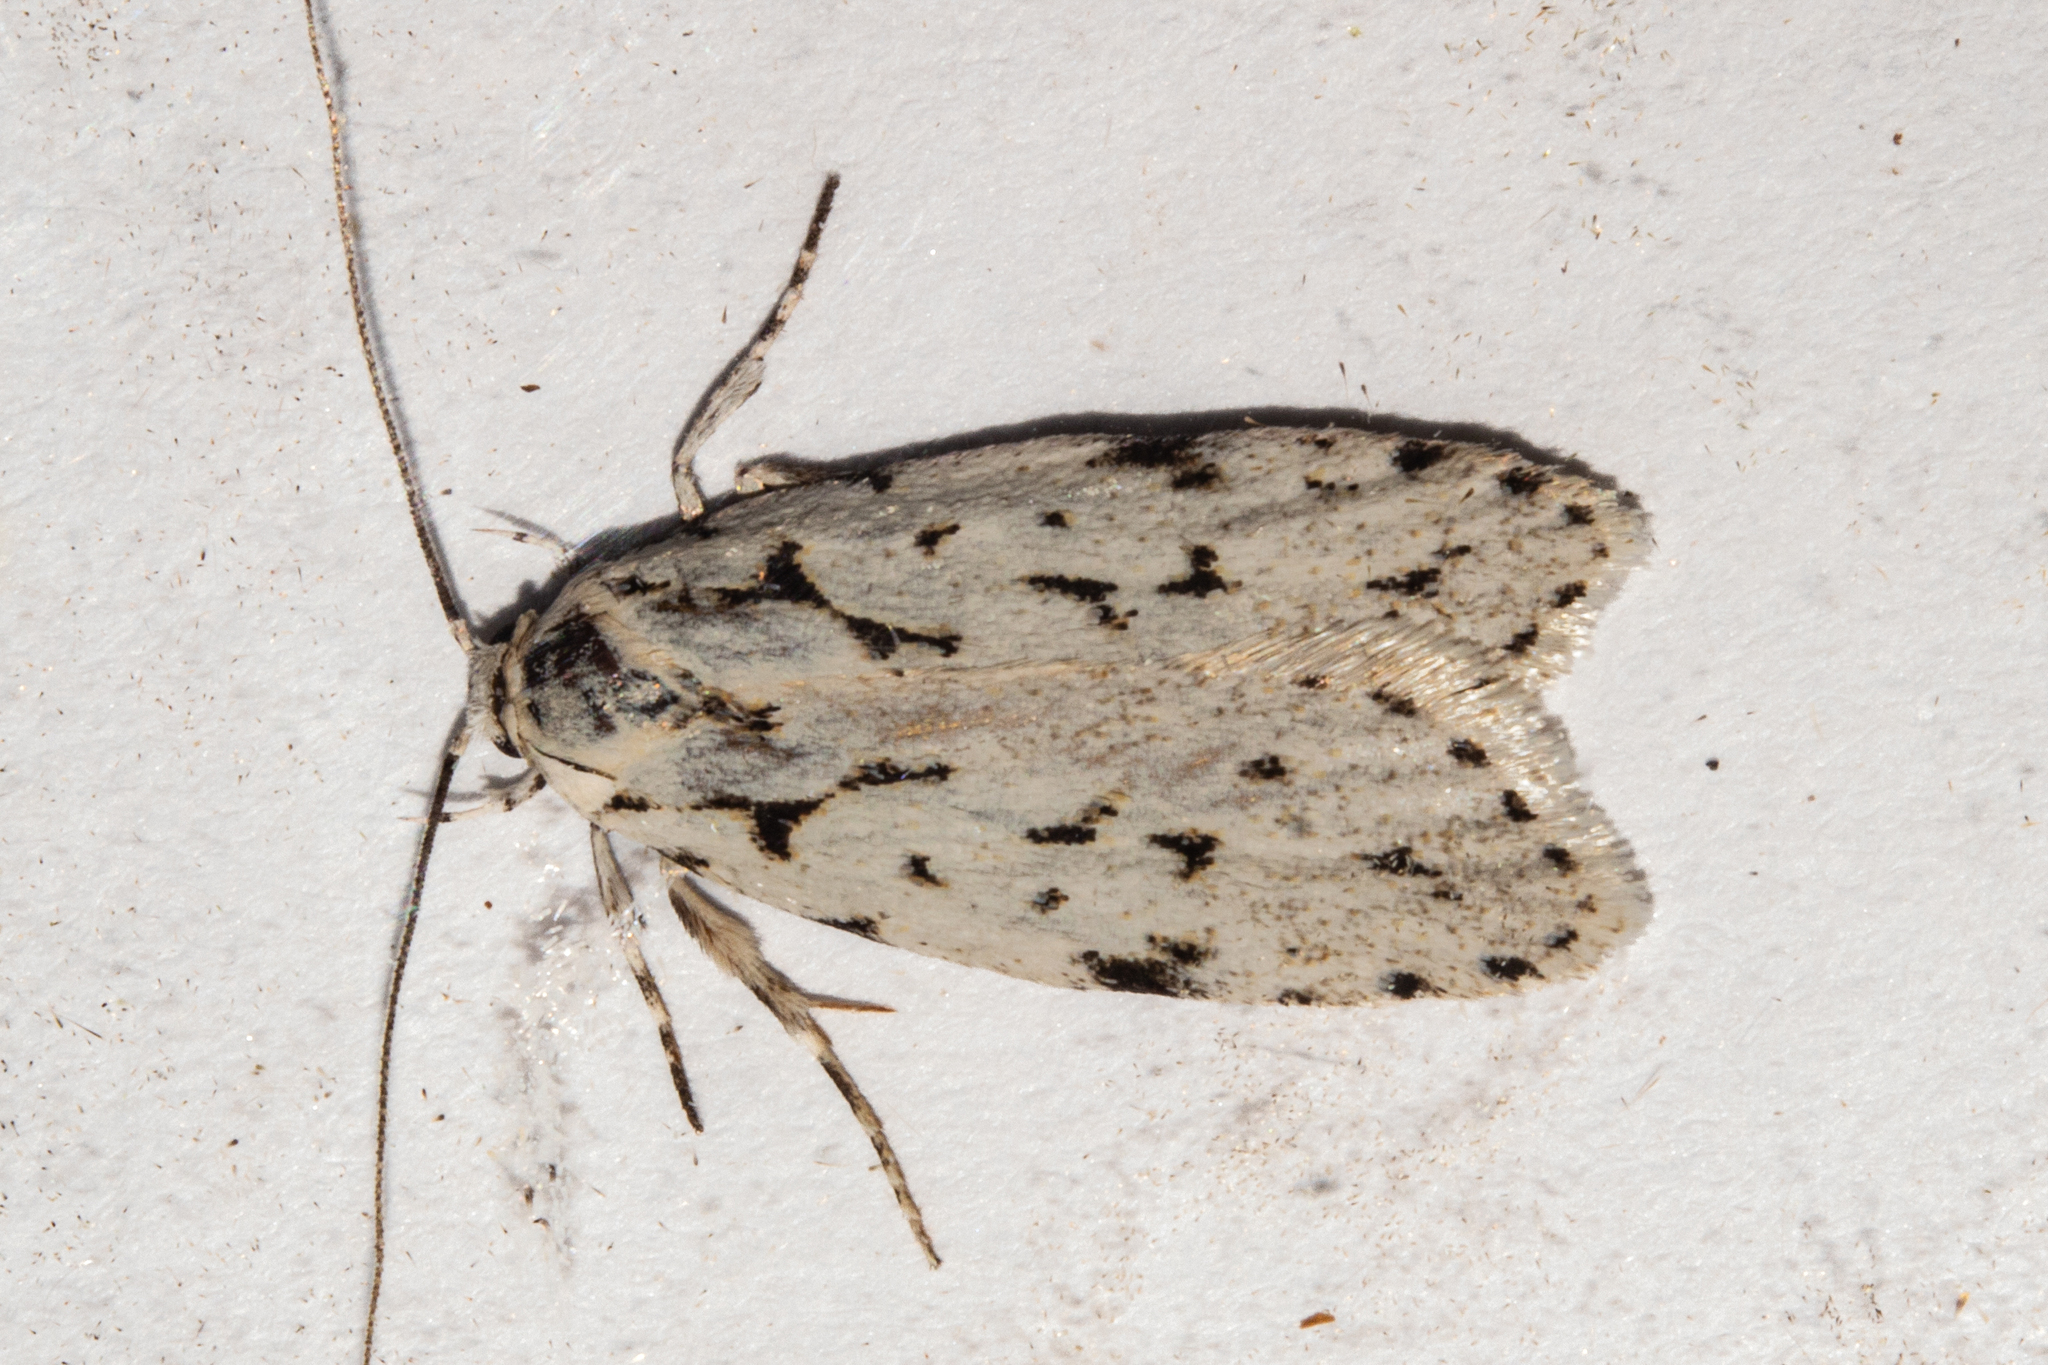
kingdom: Animalia
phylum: Arthropoda
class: Insecta
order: Lepidoptera
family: Oecophoridae
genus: Izatha
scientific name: Izatha heroica
